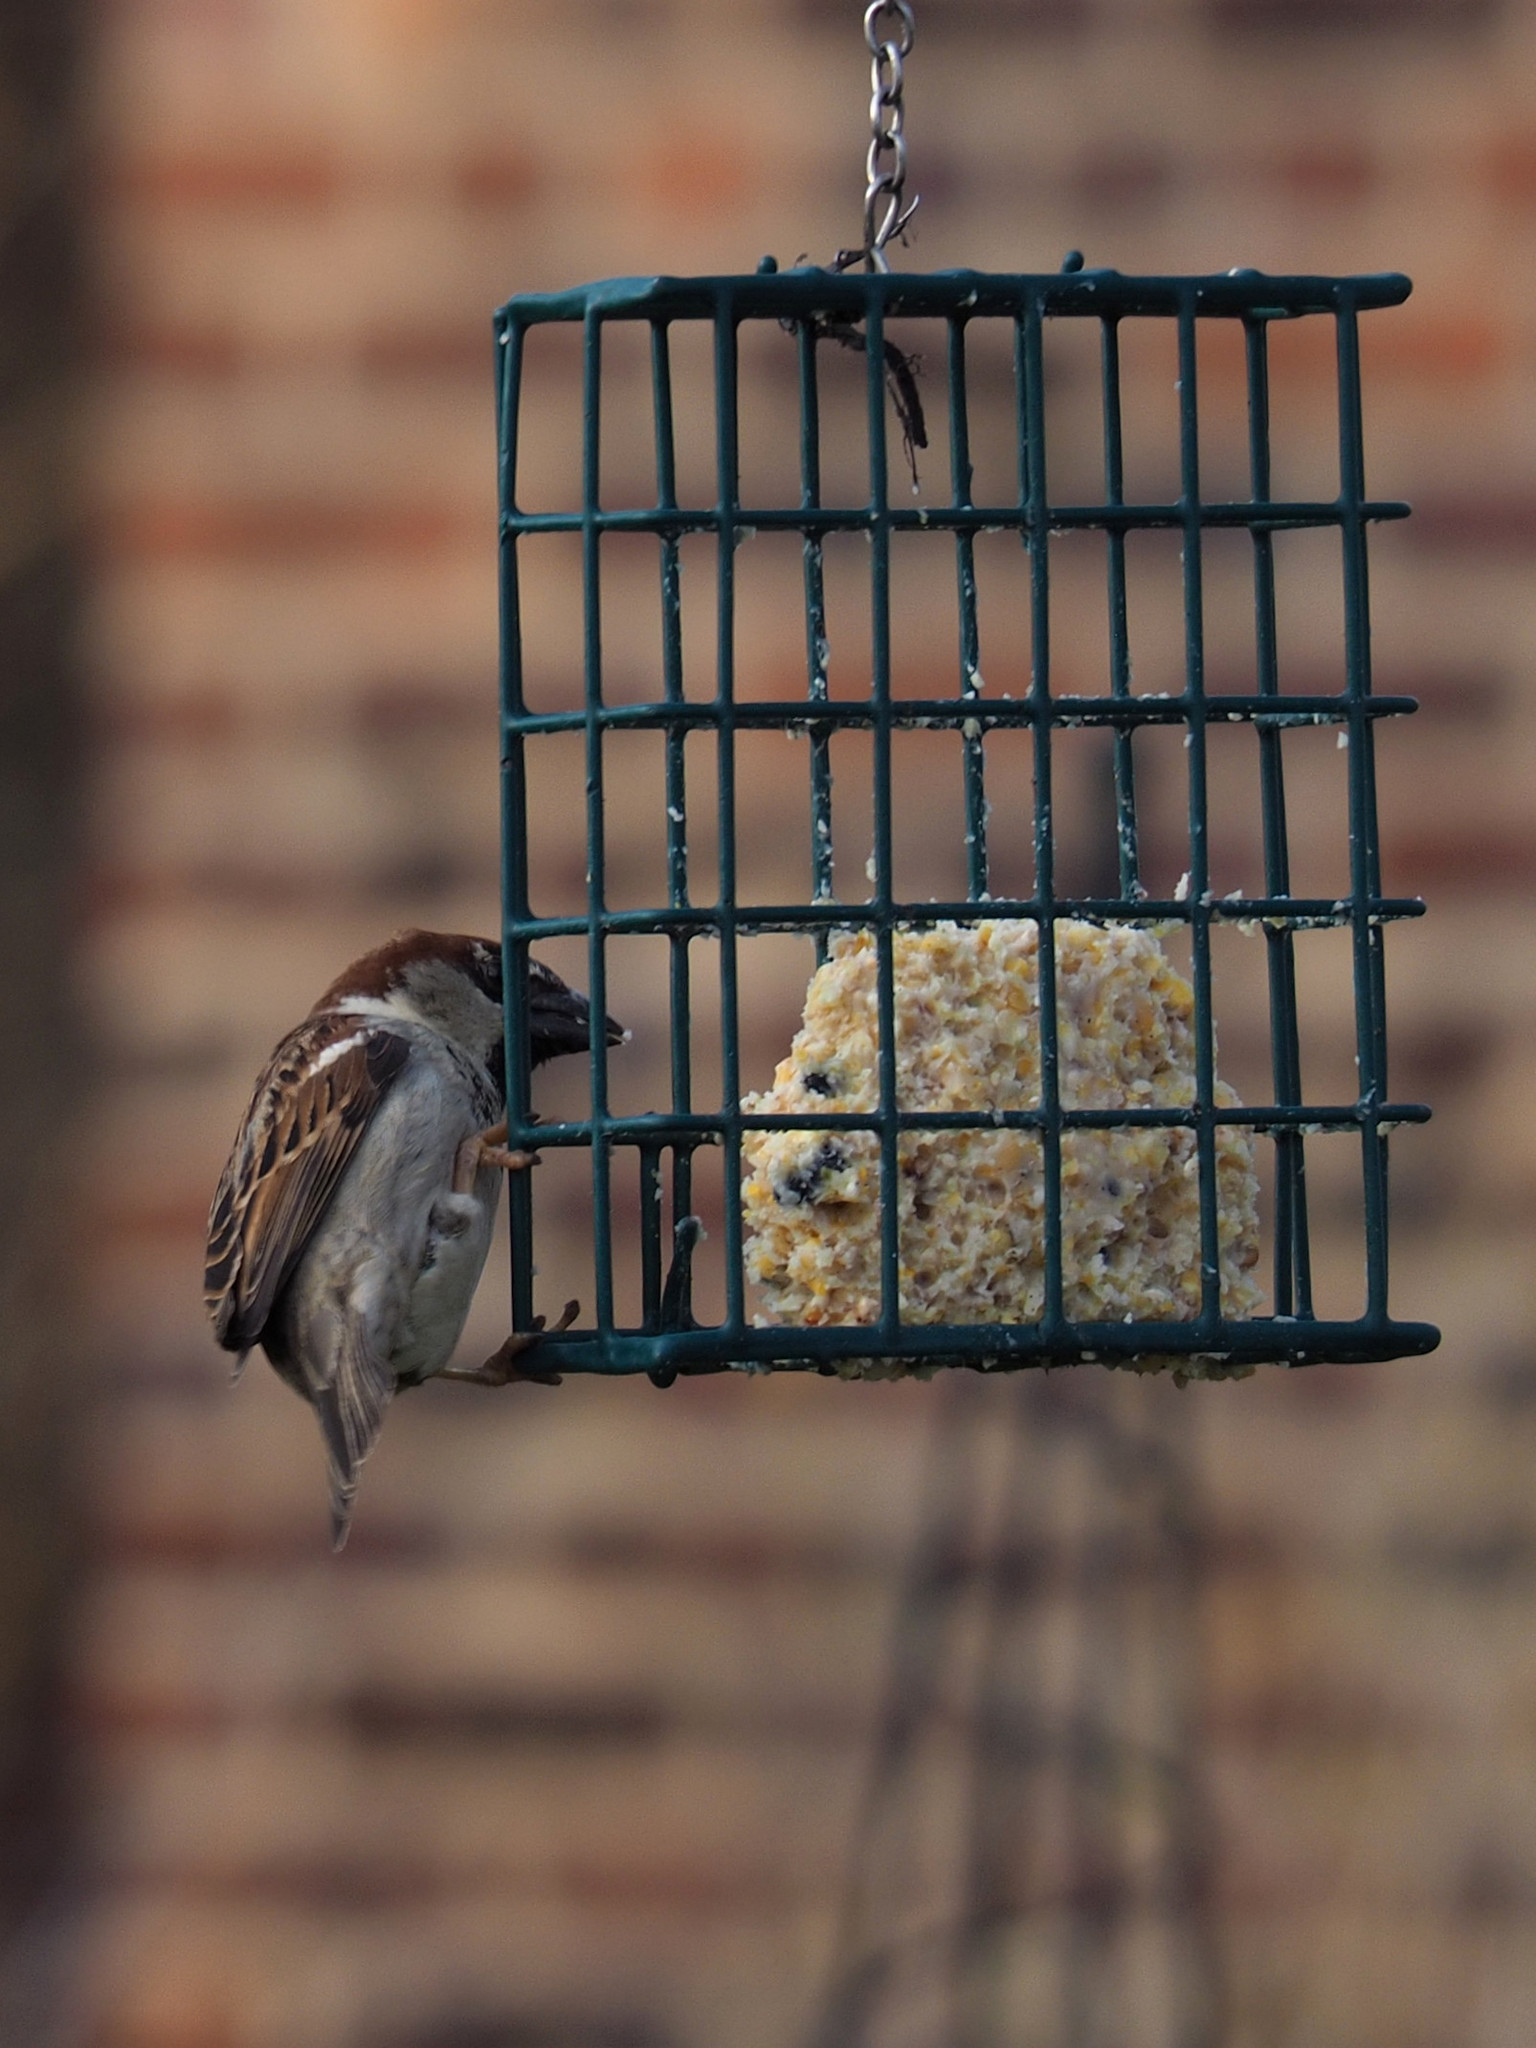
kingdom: Animalia
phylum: Chordata
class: Aves
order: Passeriformes
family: Passeridae
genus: Passer
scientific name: Passer domesticus
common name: House sparrow
